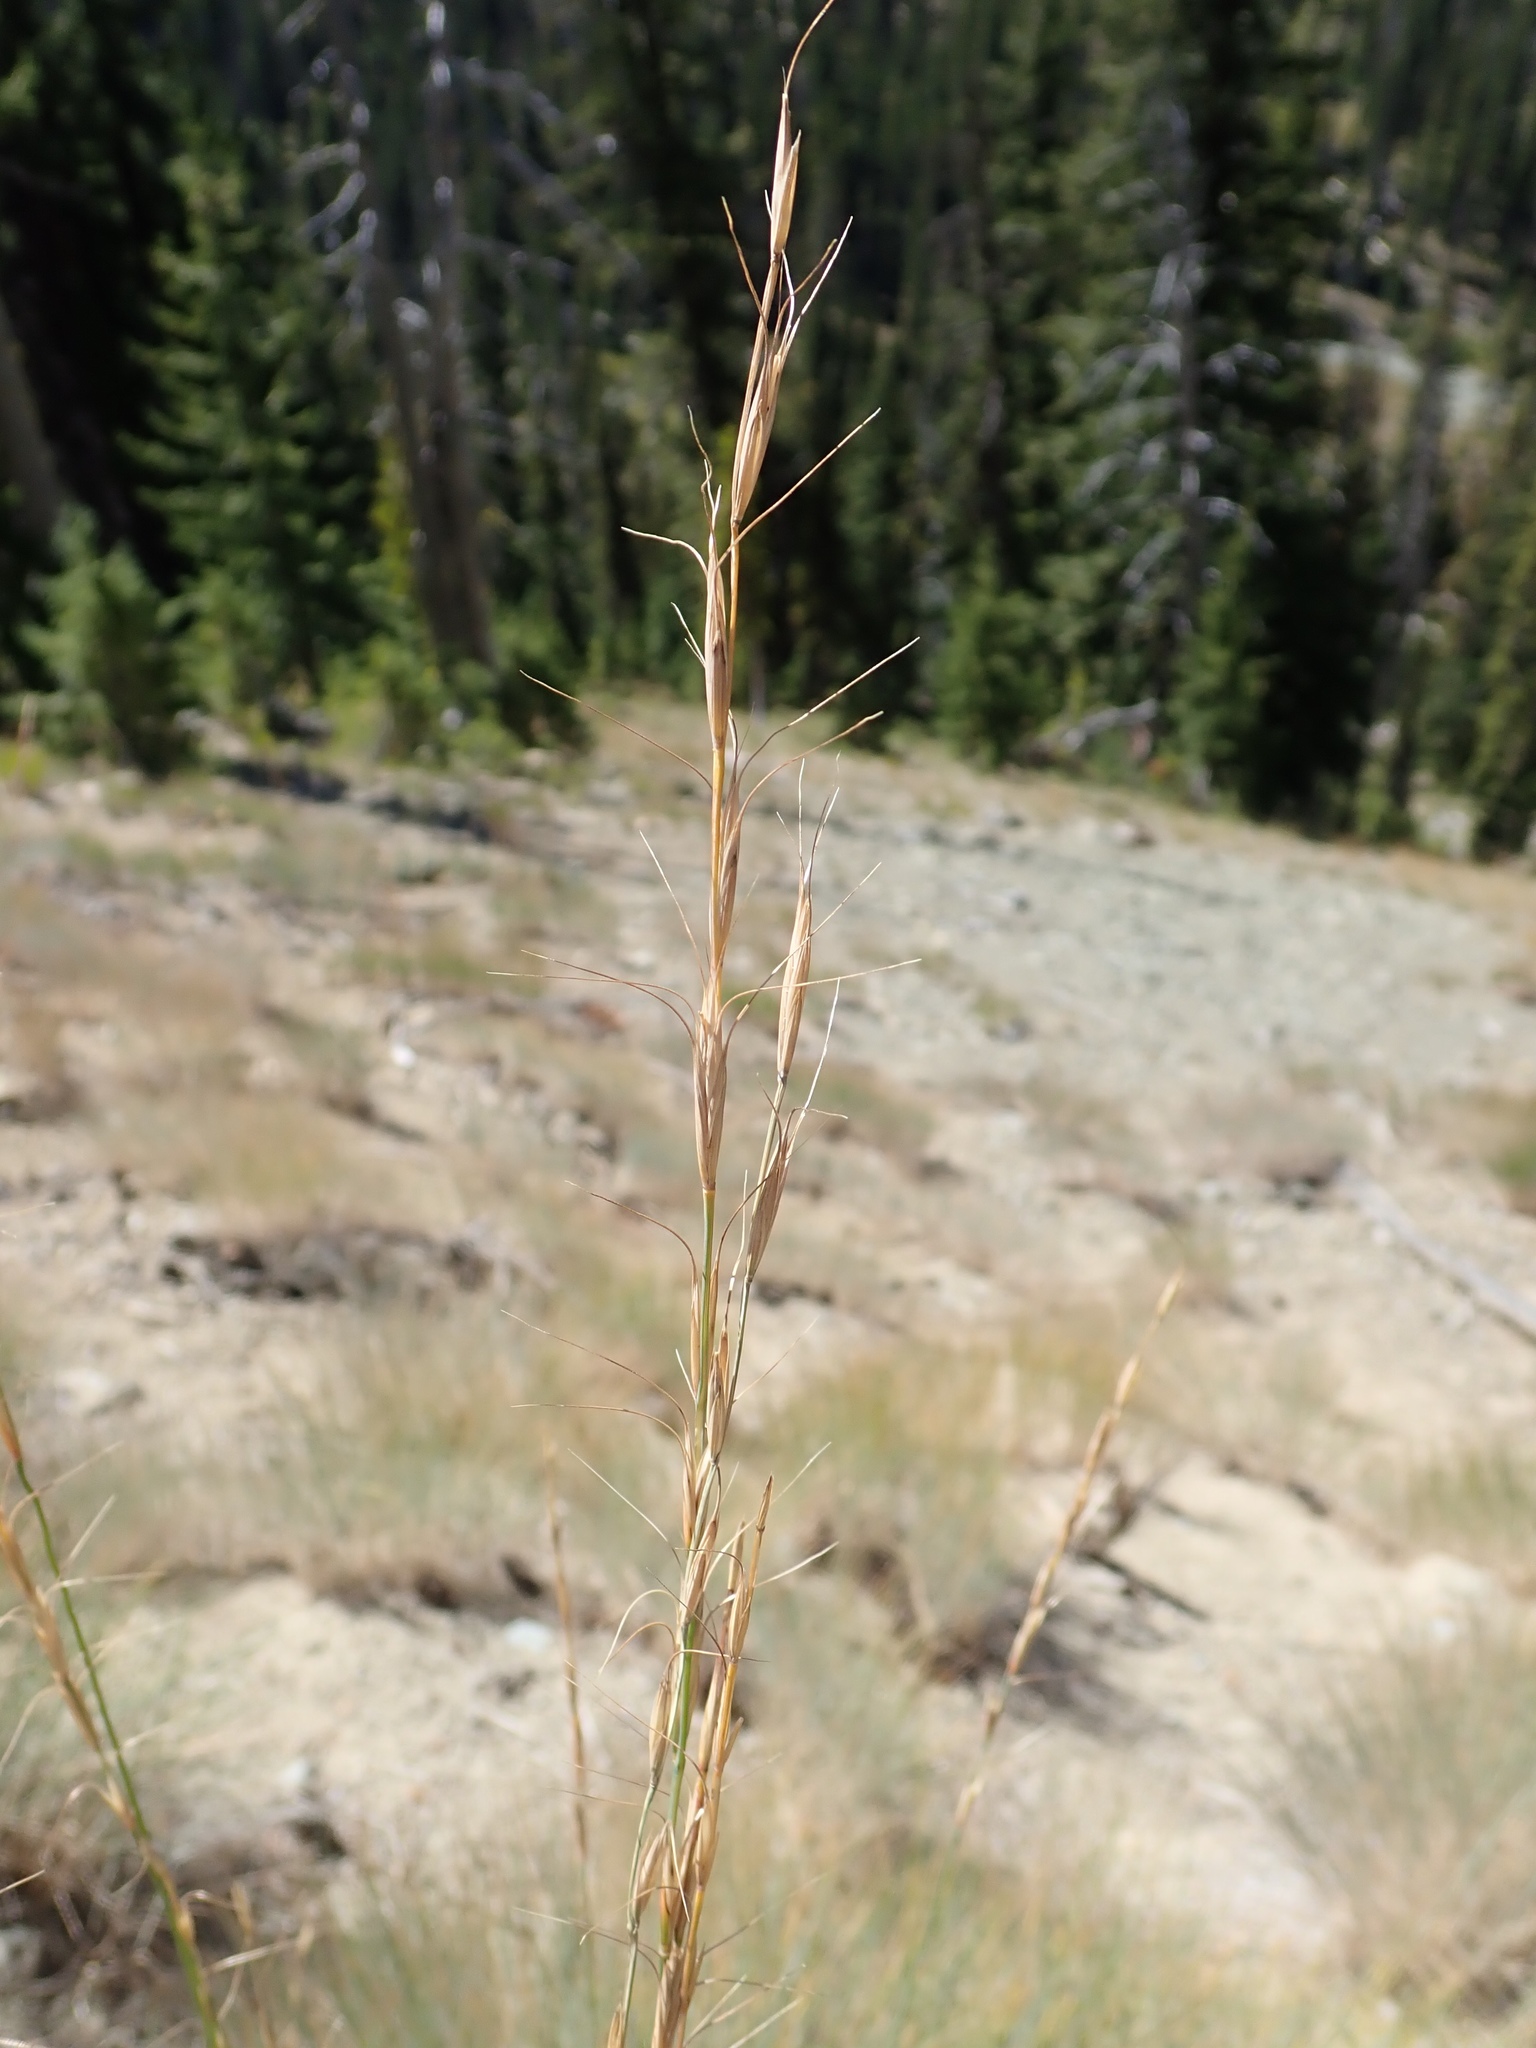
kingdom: Plantae
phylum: Tracheophyta
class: Liliopsida
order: Poales
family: Poaceae
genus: Pseudoroegneria
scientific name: Pseudoroegneria spicata
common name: Bluebunch wheatgrass
